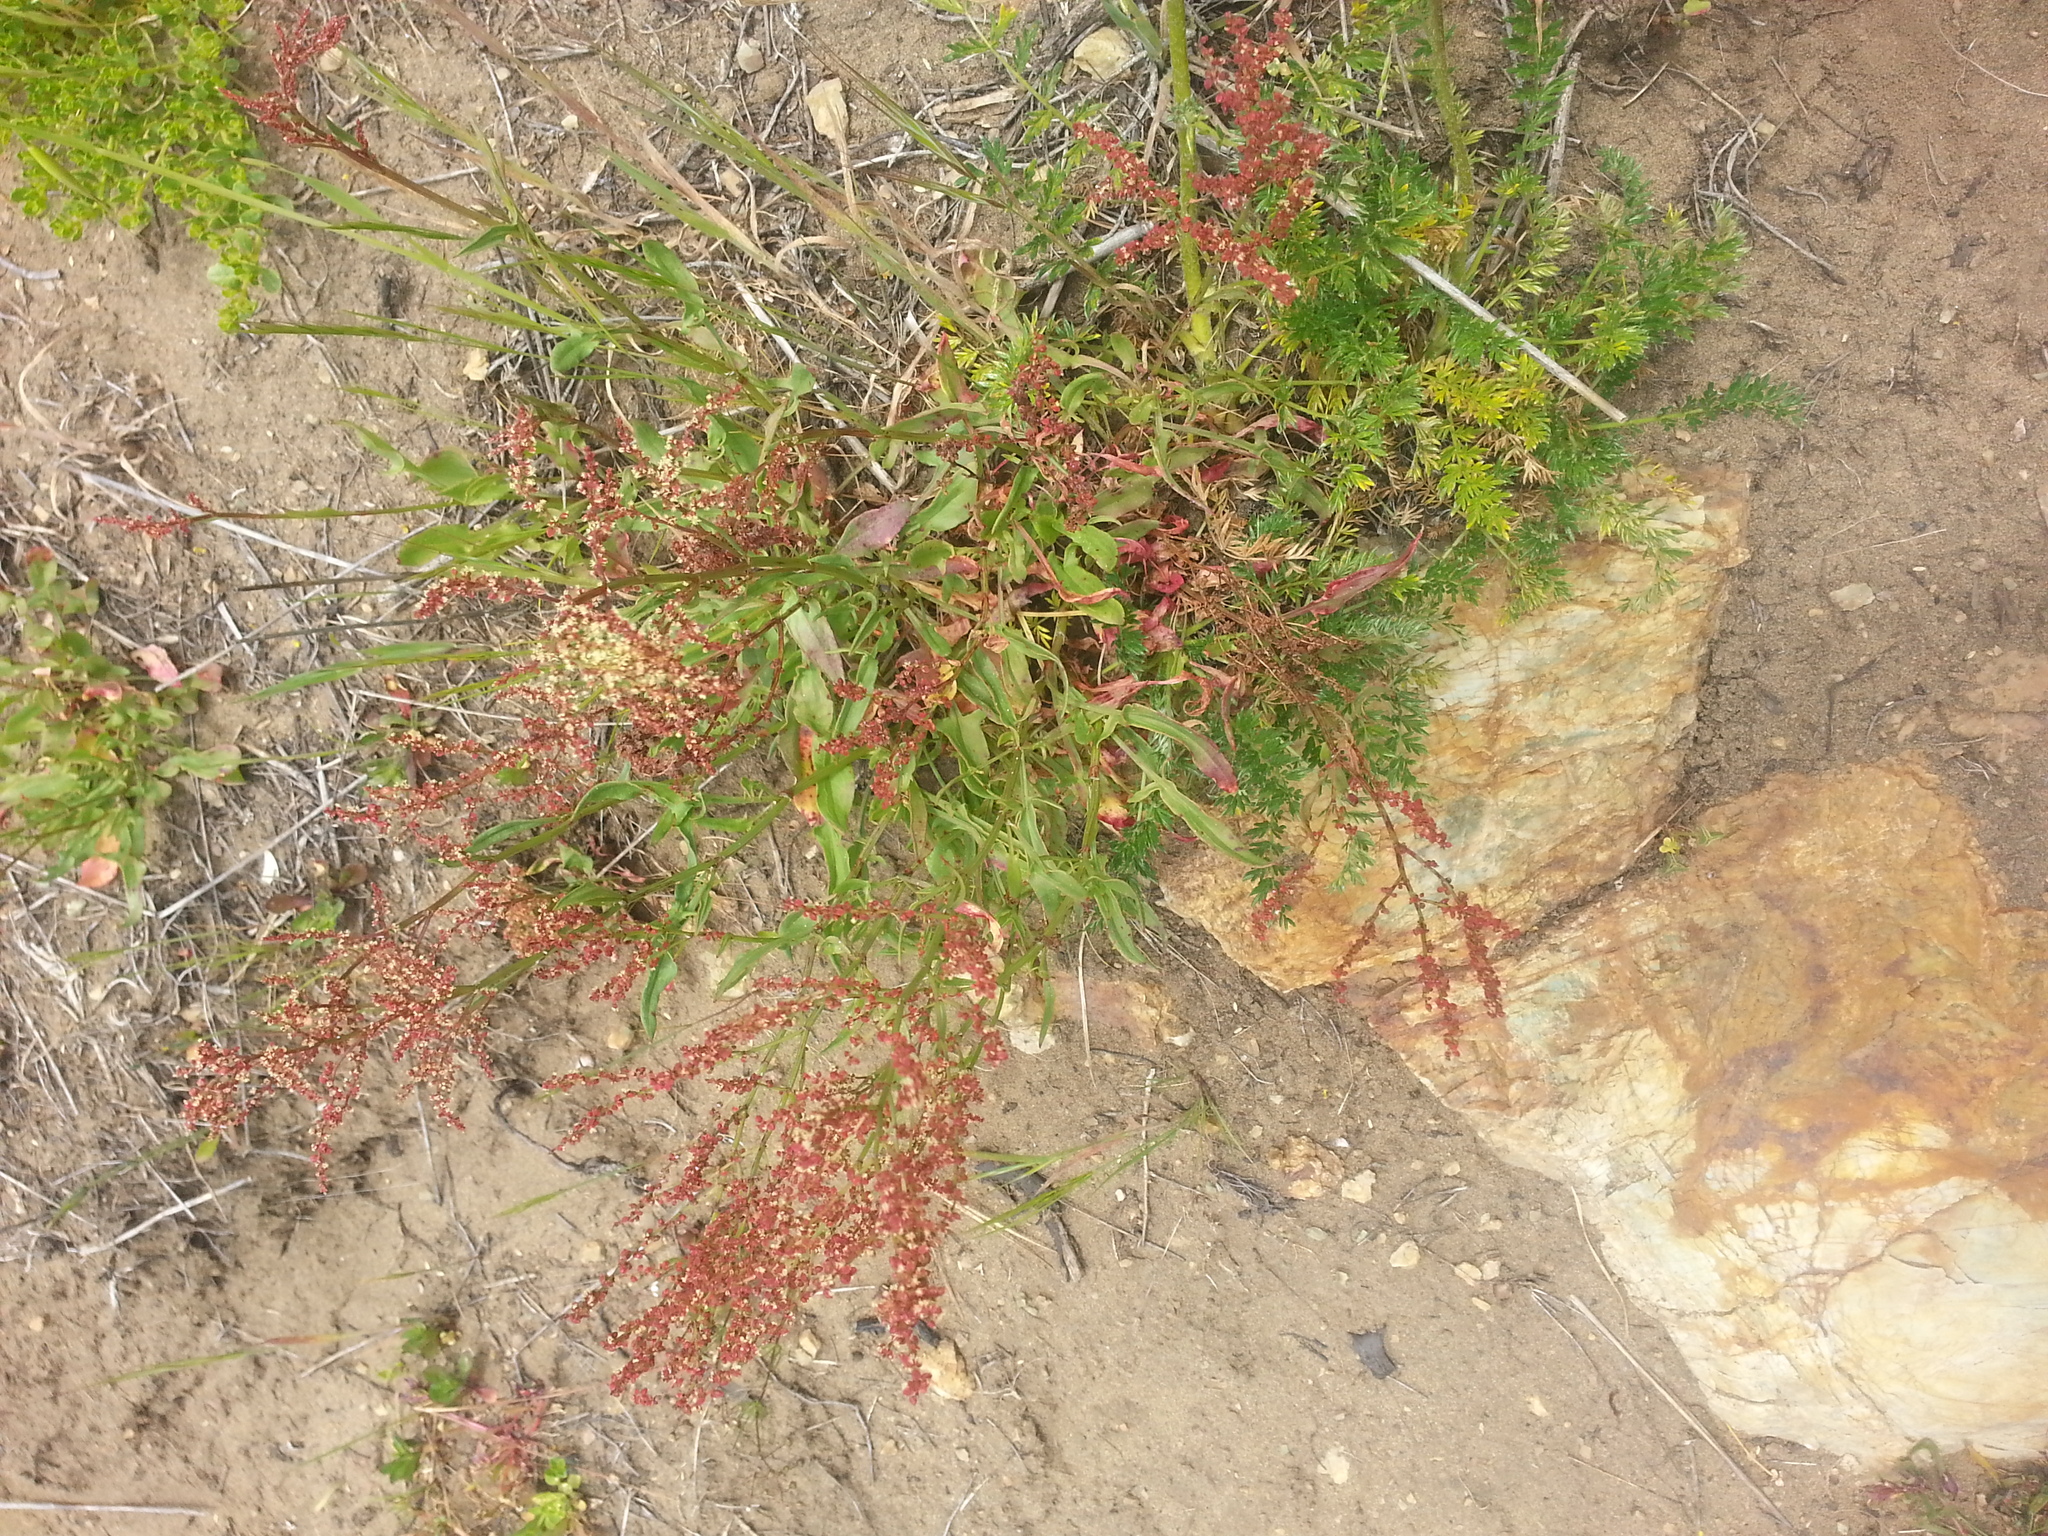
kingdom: Plantae
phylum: Tracheophyta
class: Magnoliopsida
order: Caryophyllales
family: Polygonaceae
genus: Rumex
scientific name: Rumex acetosella
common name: Common sheep sorrel
